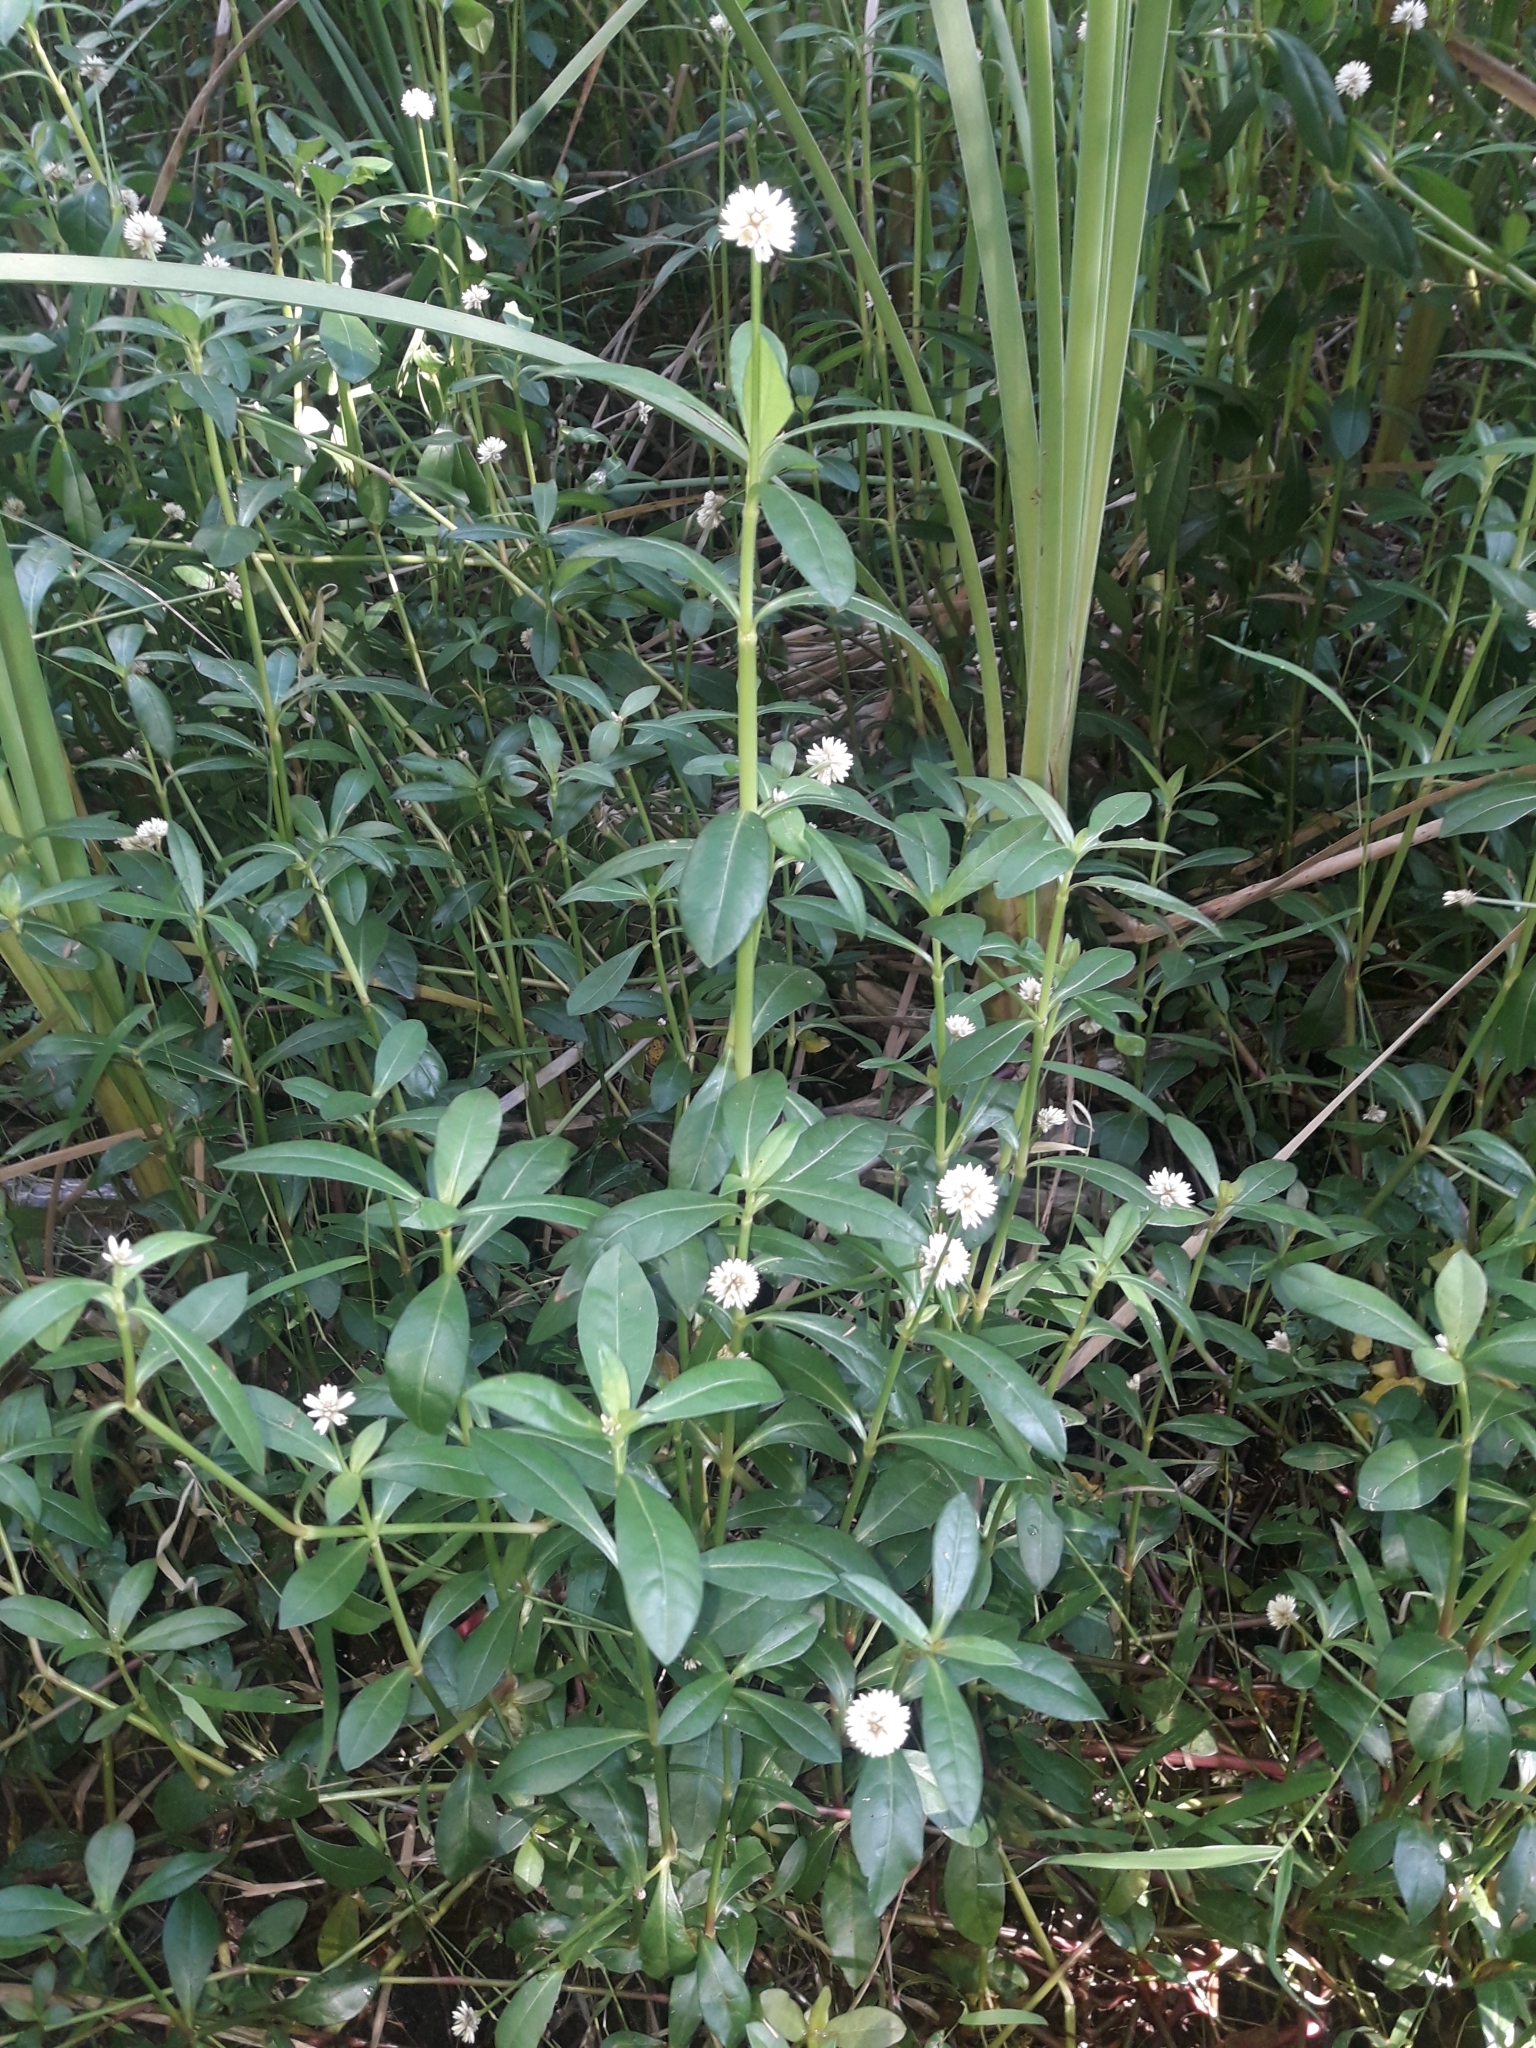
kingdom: Plantae
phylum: Tracheophyta
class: Magnoliopsida
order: Caryophyllales
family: Amaranthaceae
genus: Alternanthera
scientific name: Alternanthera philoxeroides
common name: Alligatorweed
